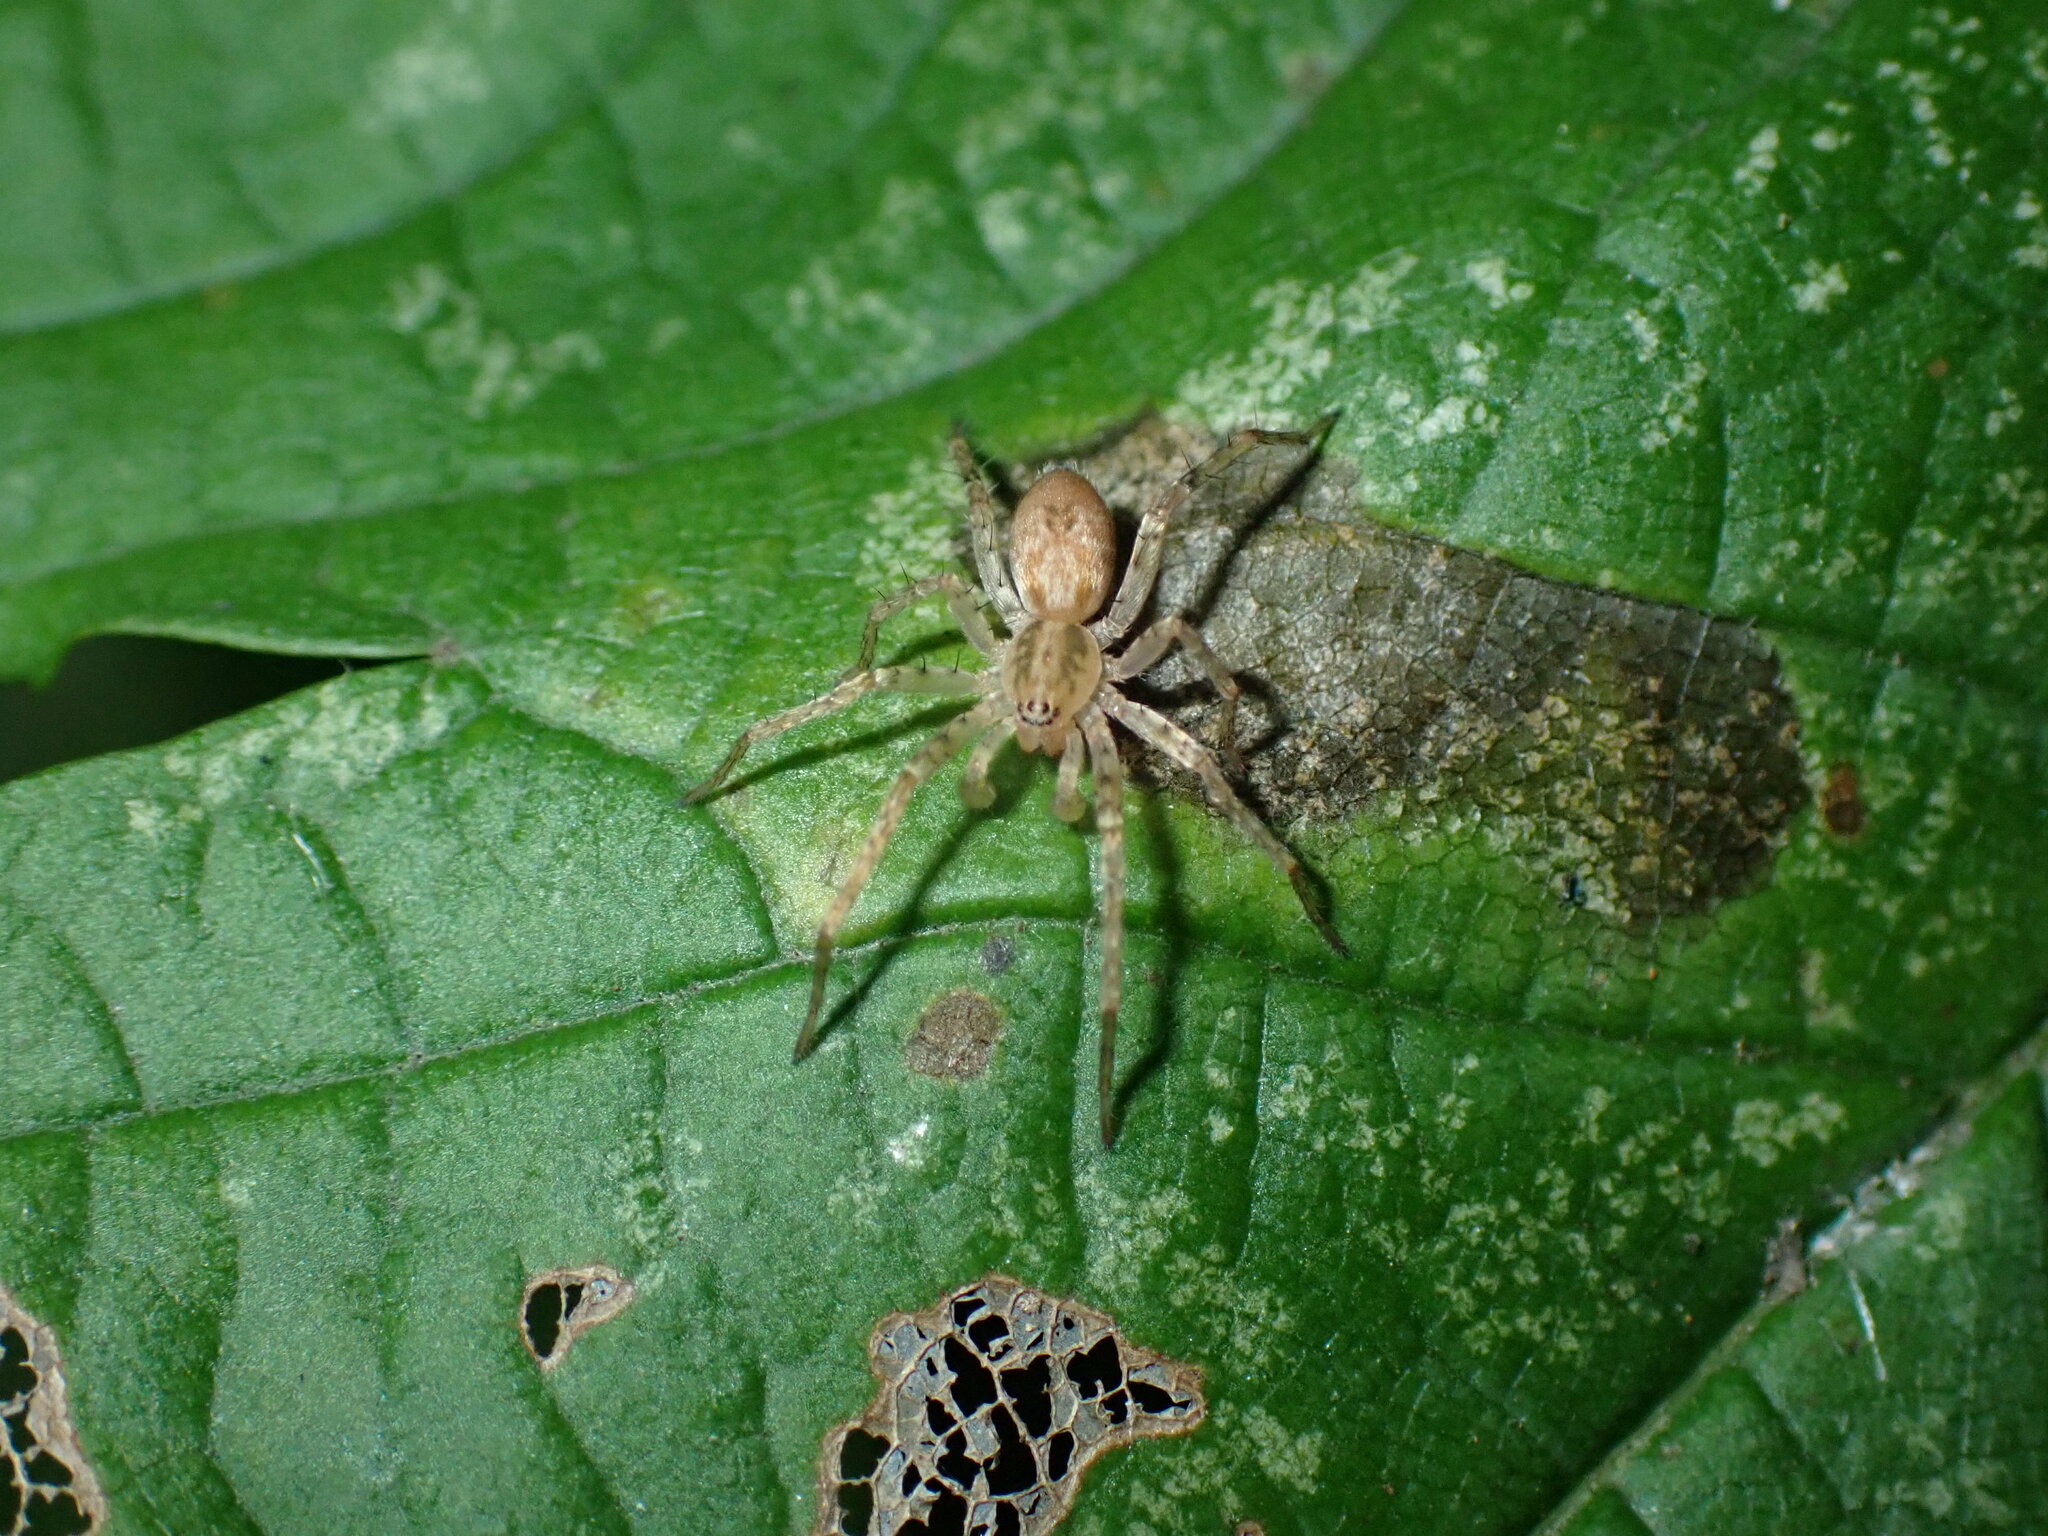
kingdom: Animalia
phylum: Arthropoda
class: Arachnida
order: Araneae
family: Anyphaenidae
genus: Anyphaena
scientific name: Anyphaena accentuata
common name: Buzzing spider
